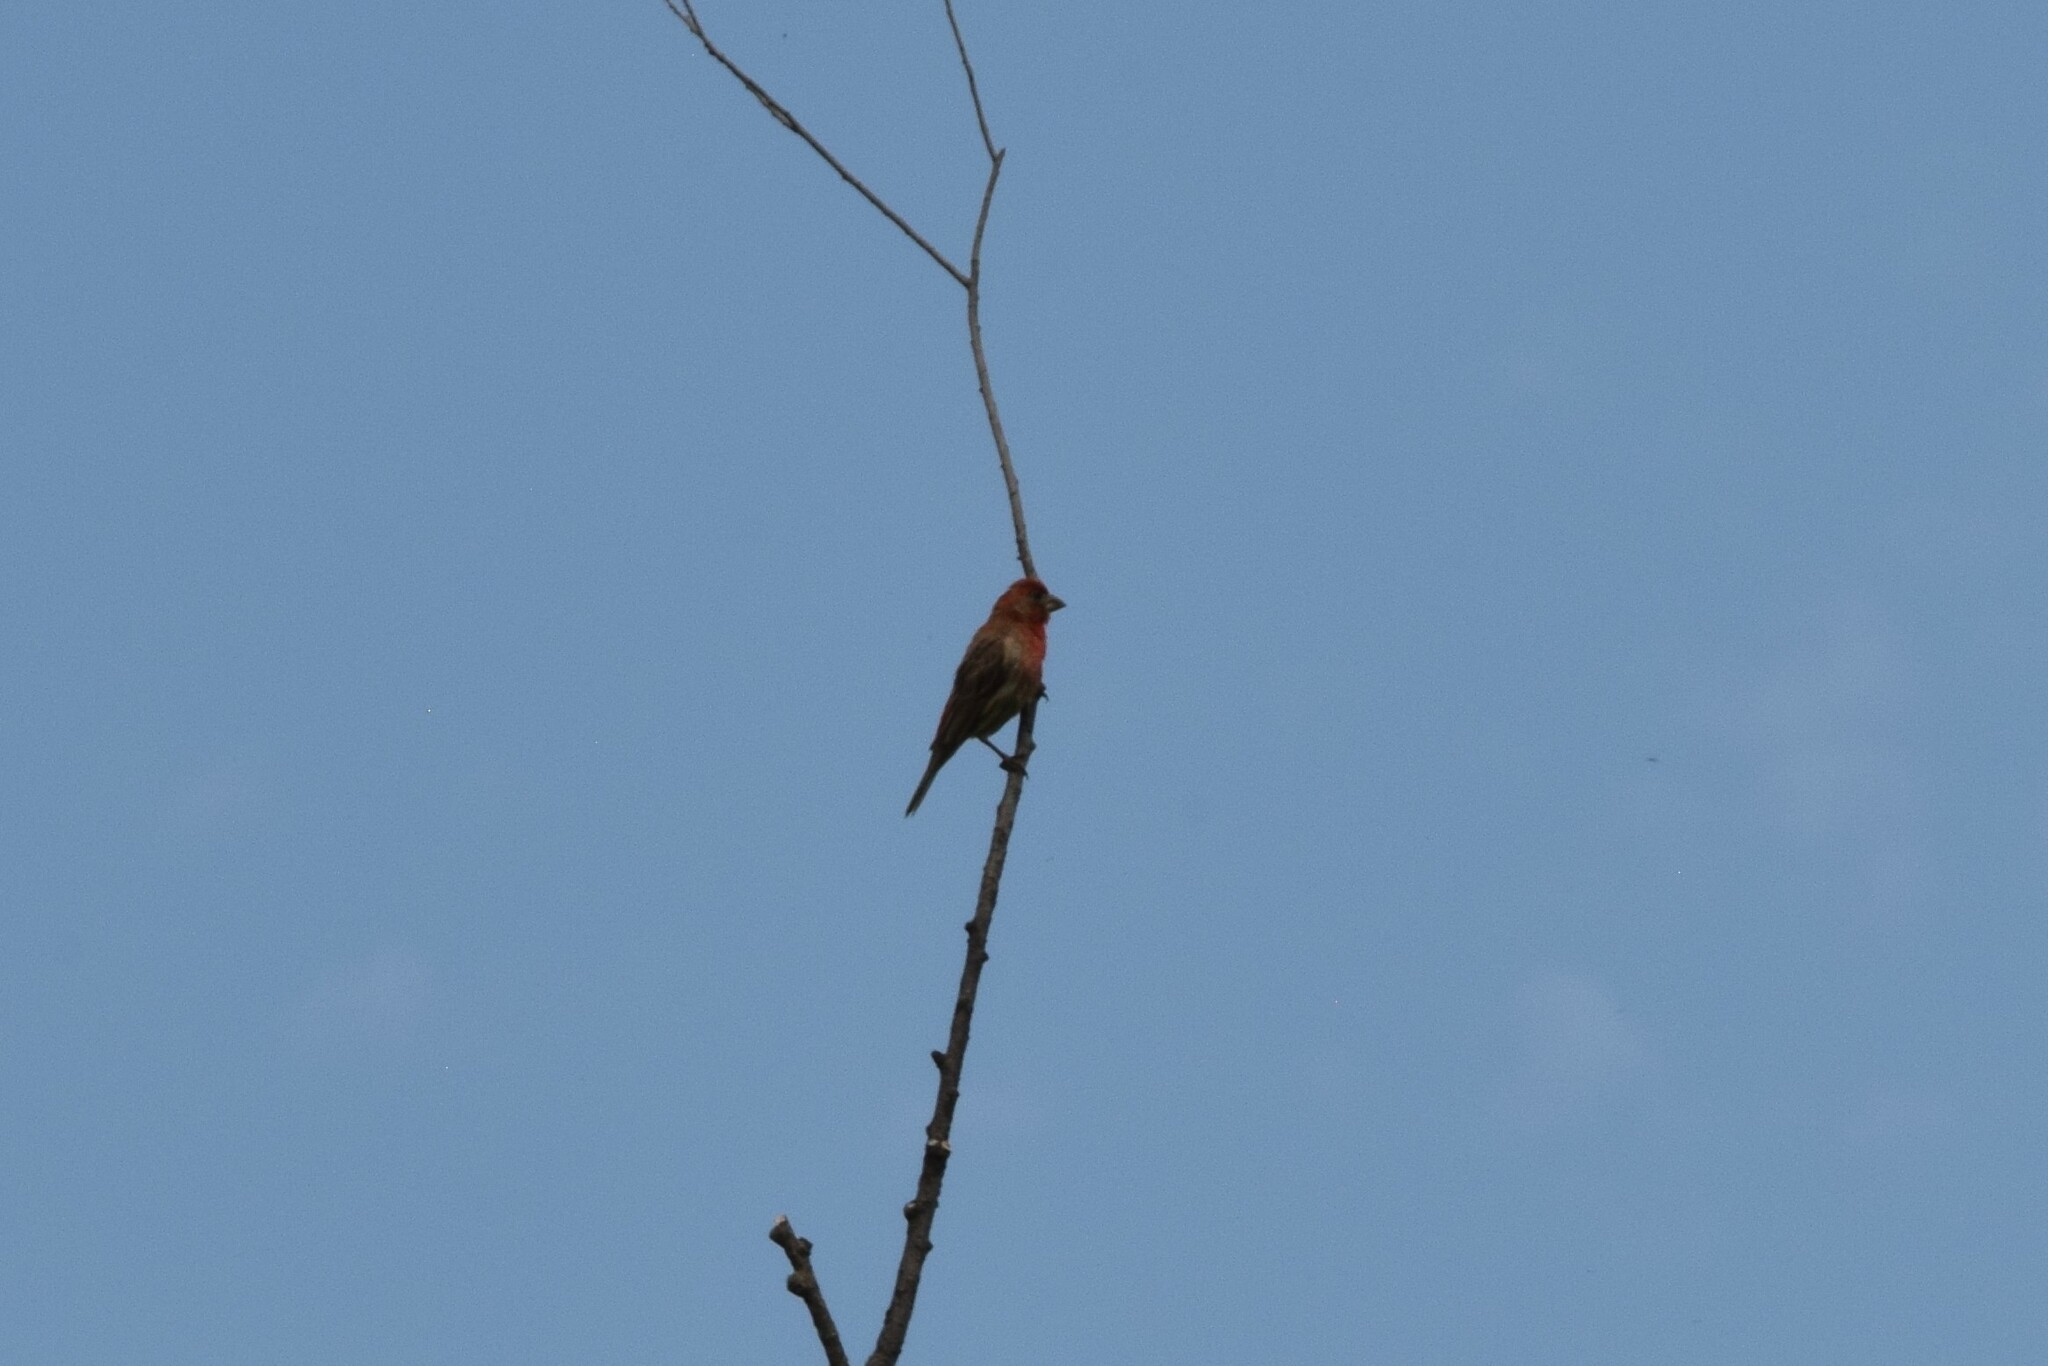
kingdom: Animalia
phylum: Chordata
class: Aves
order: Passeriformes
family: Fringillidae
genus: Haemorhous
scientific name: Haemorhous mexicanus
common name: House finch
